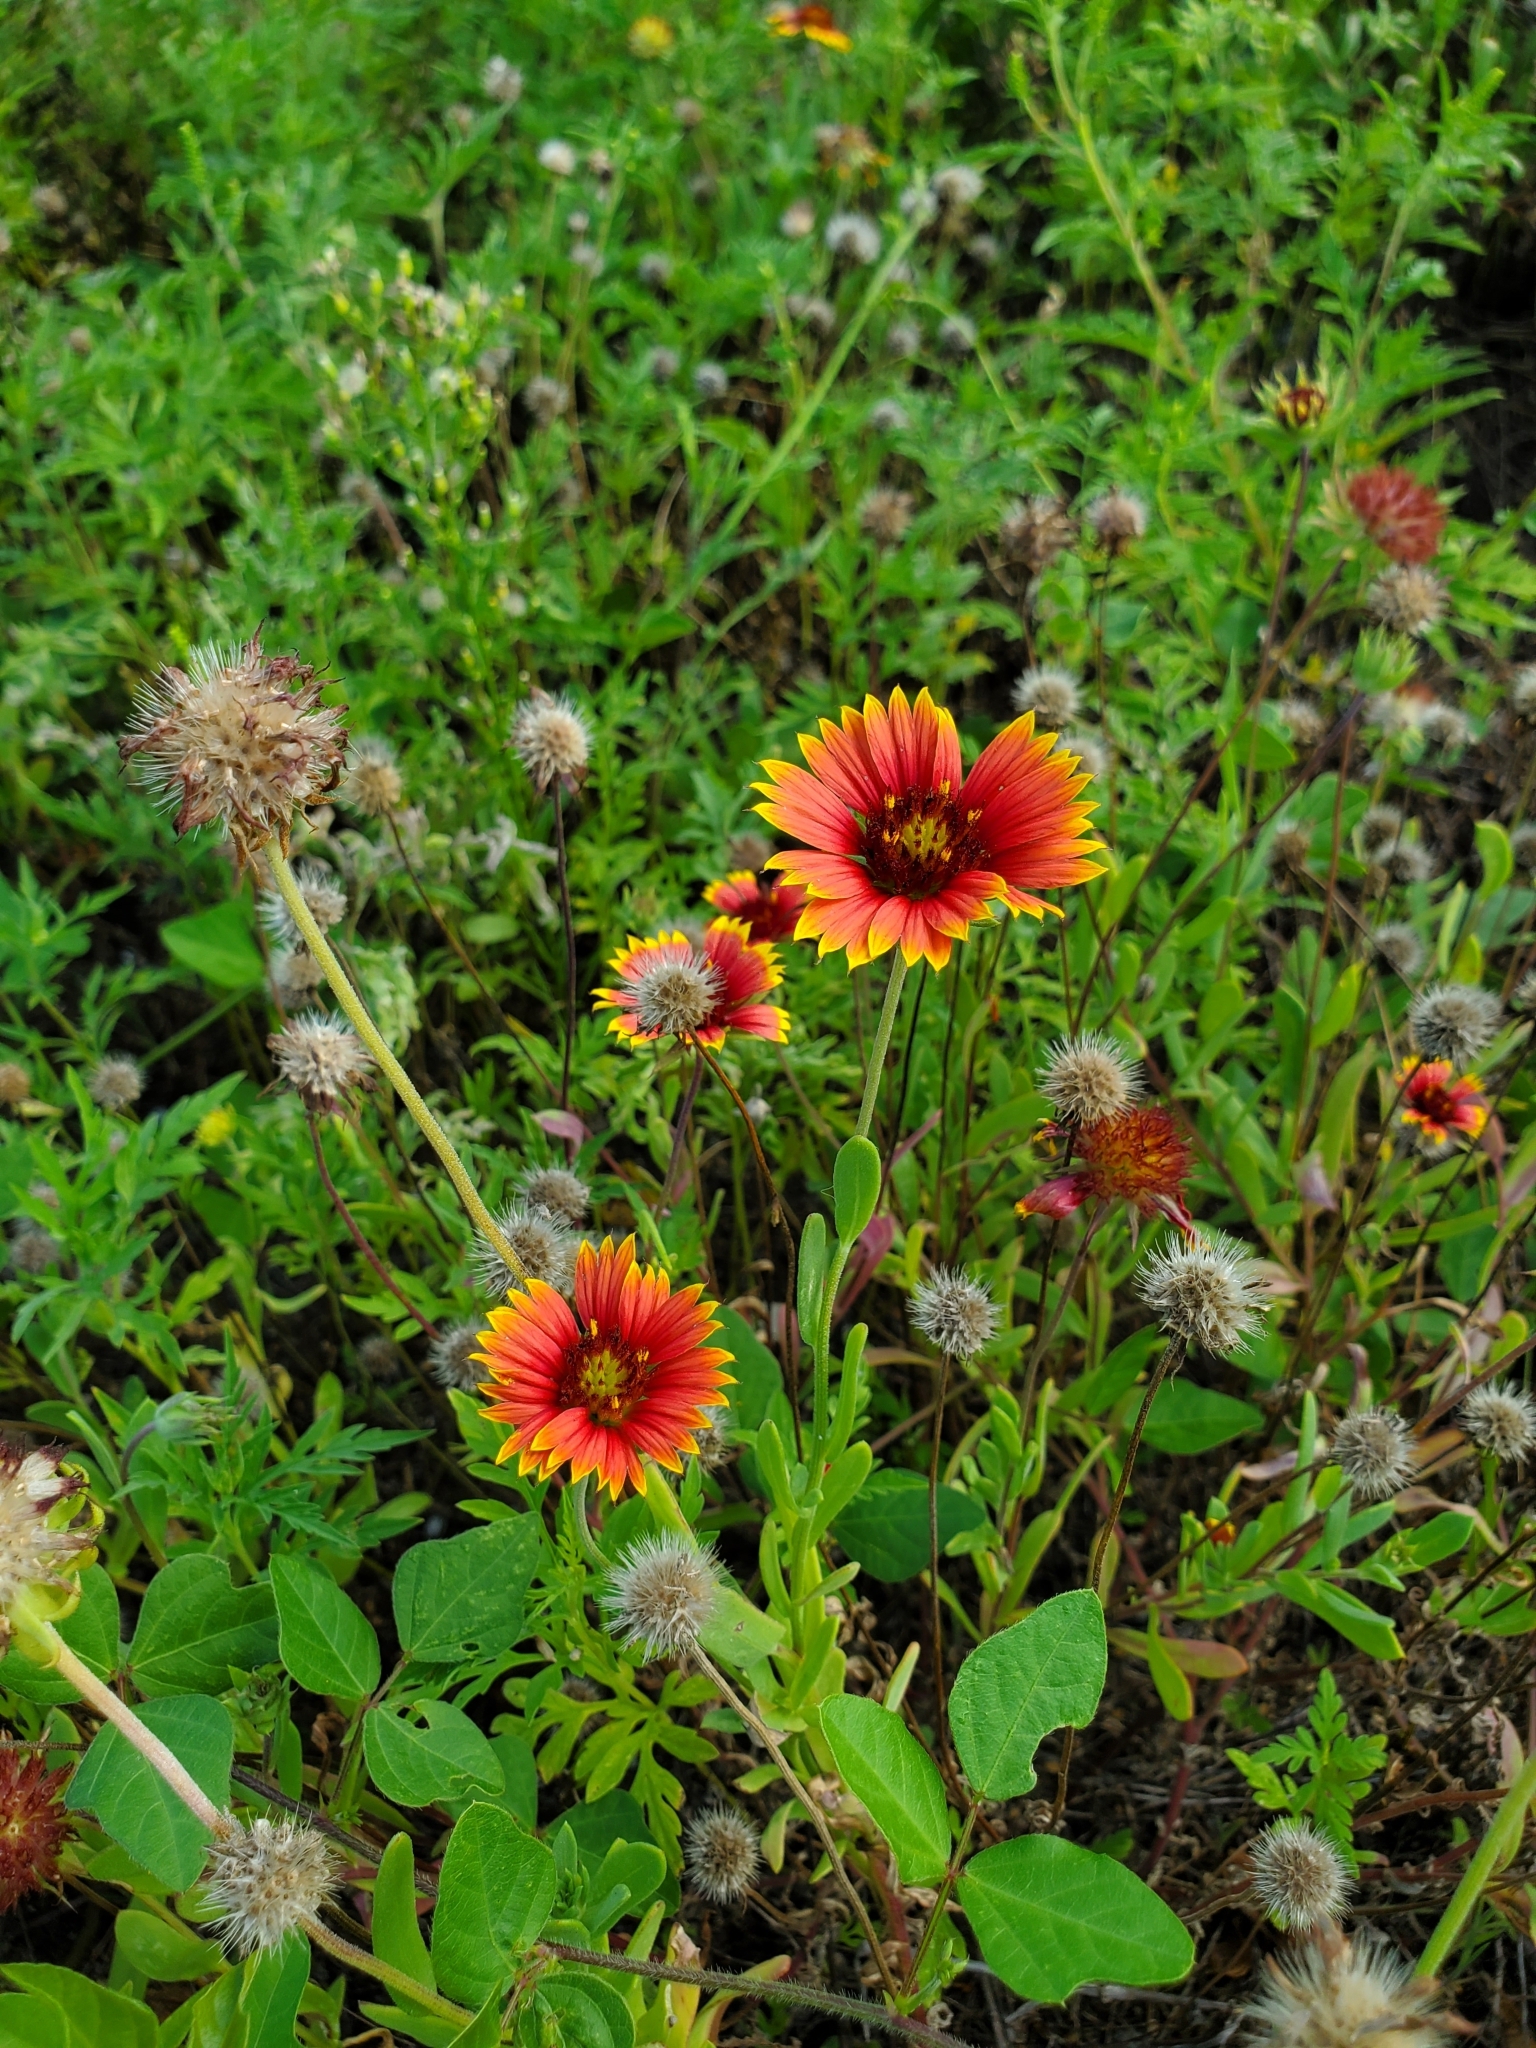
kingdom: Plantae
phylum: Tracheophyta
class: Magnoliopsida
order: Asterales
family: Asteraceae
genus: Gaillardia
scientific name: Gaillardia pulchella
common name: Firewheel
